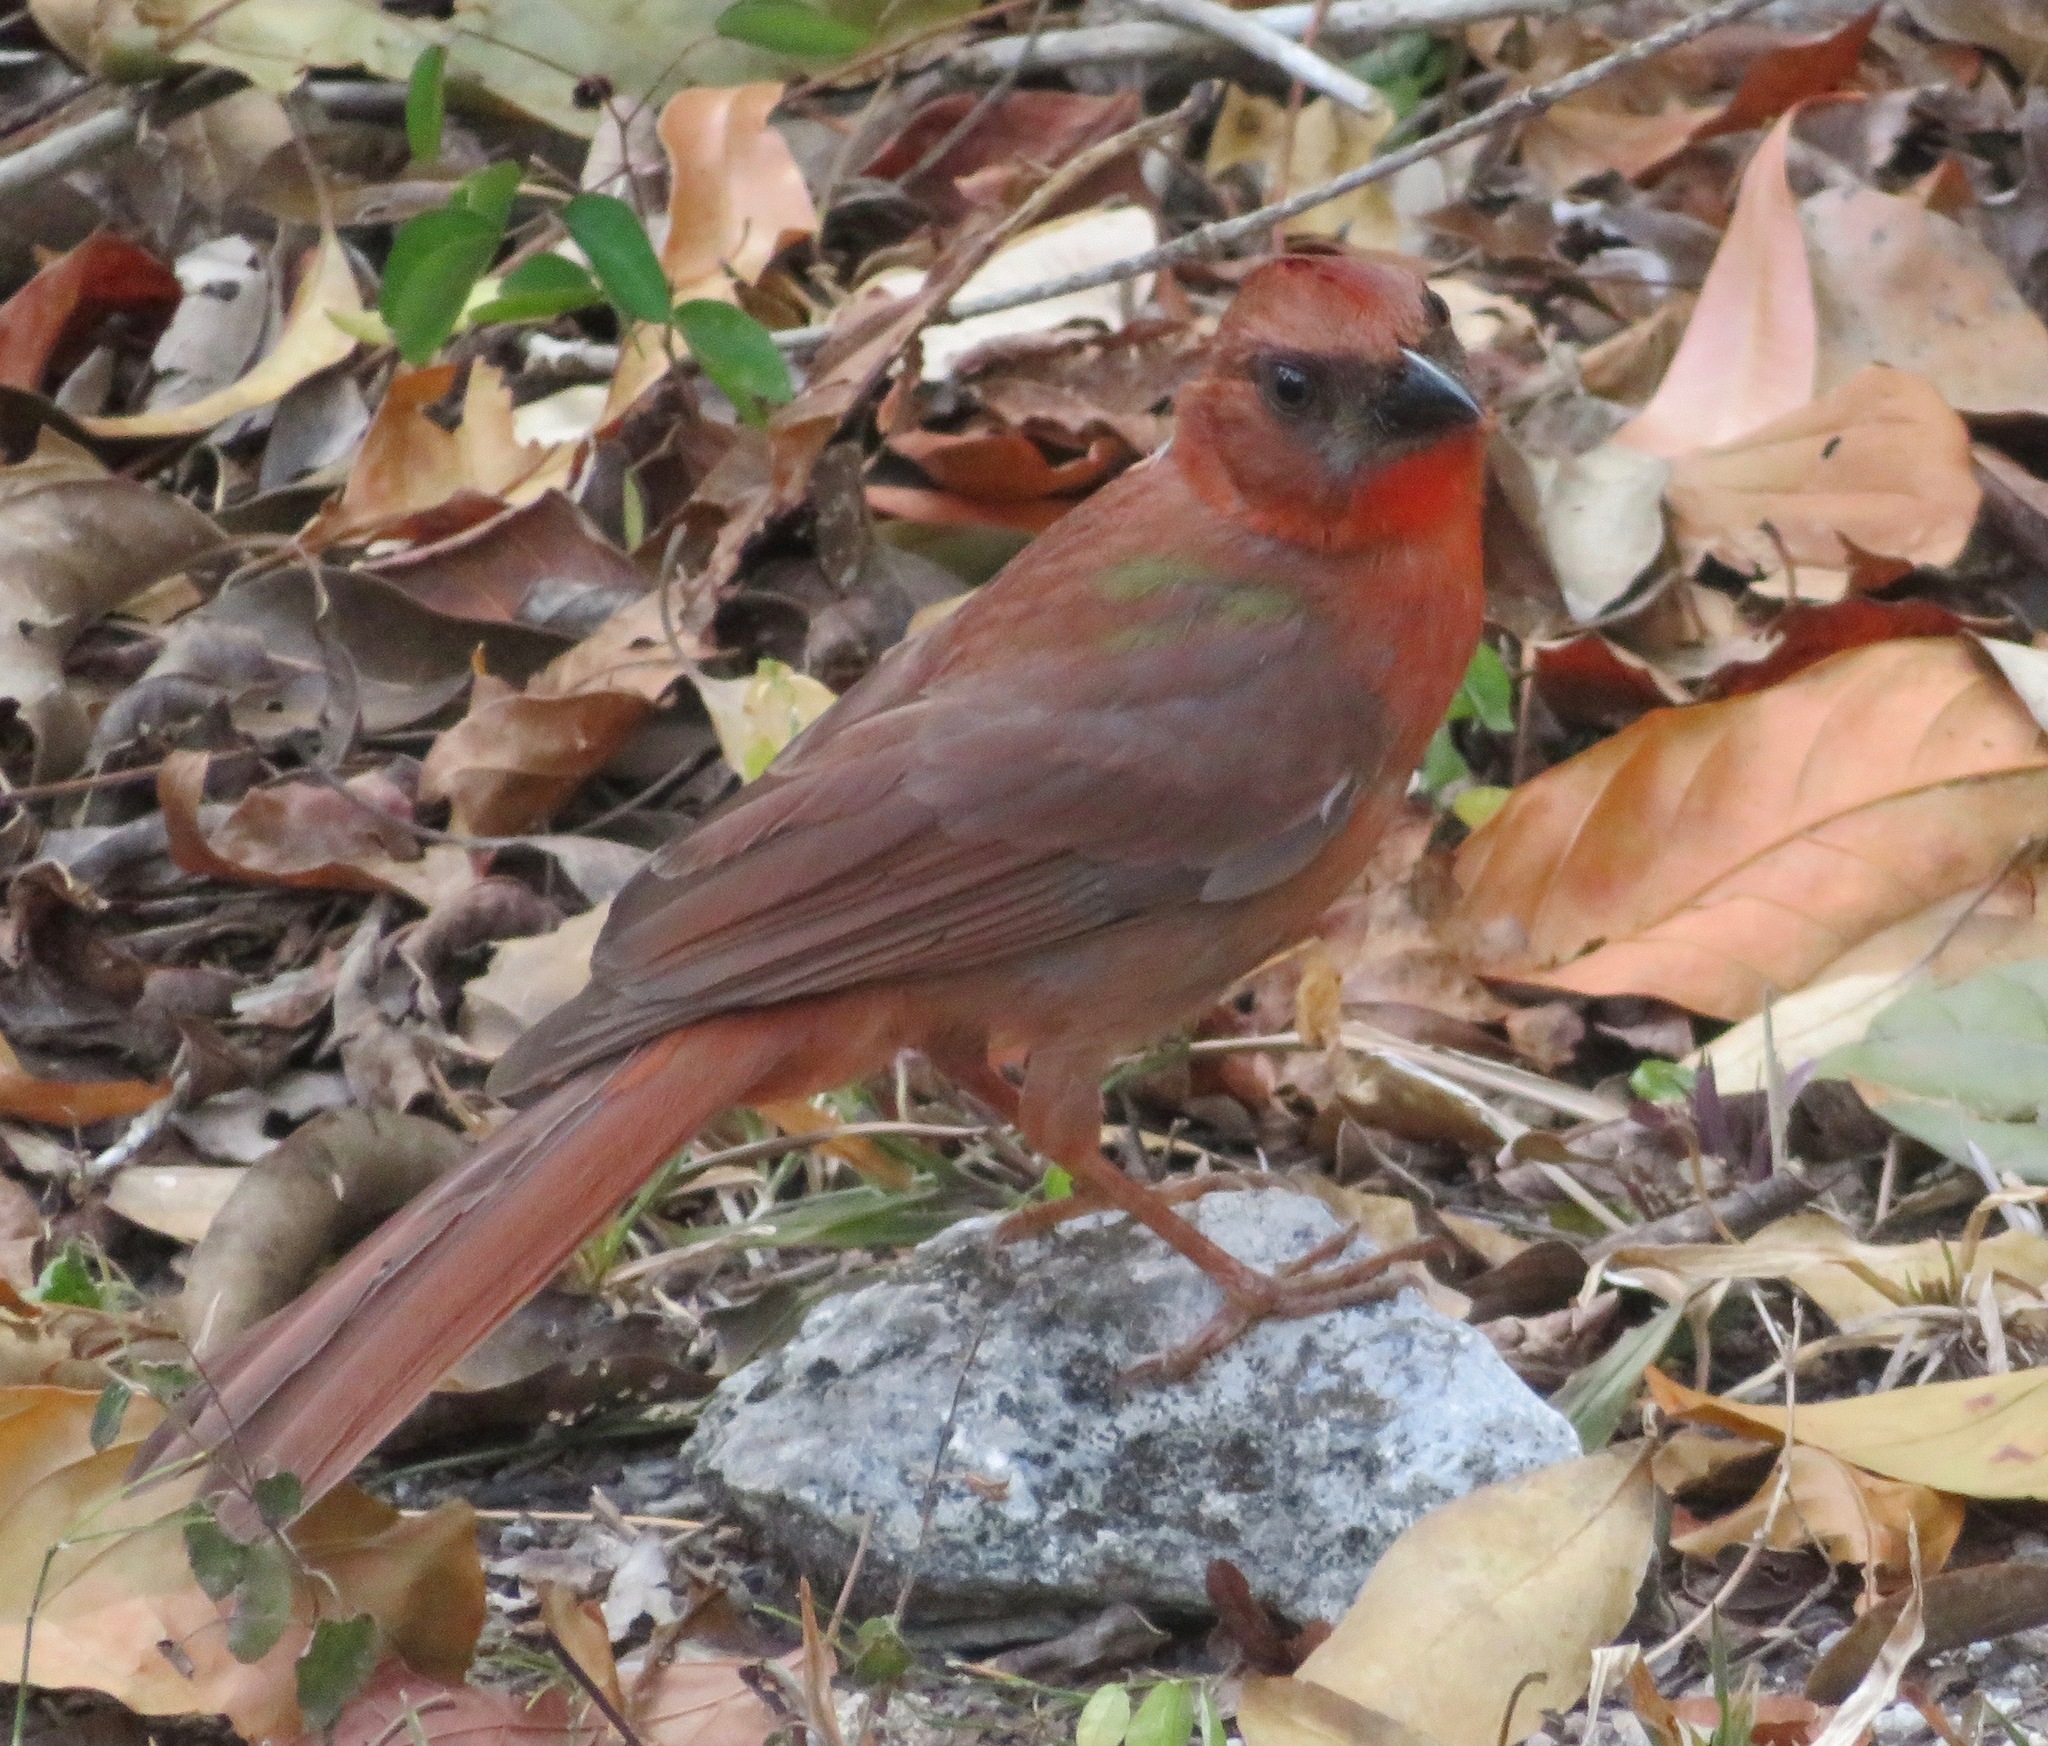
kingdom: Animalia
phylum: Chordata
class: Aves
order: Passeriformes
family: Cardinalidae
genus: Habia
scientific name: Habia fuscicauda
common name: Red-throated ant-tanager
